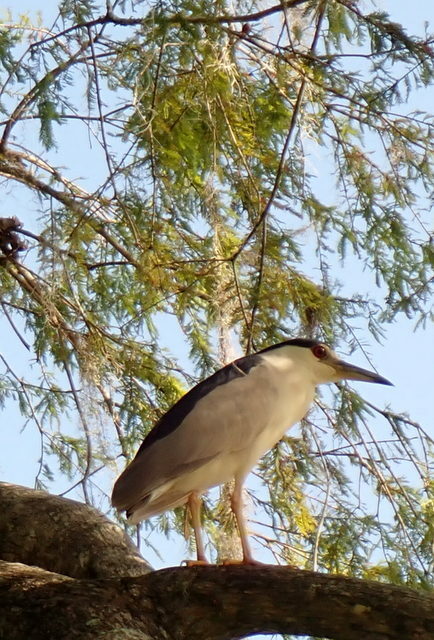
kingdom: Animalia
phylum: Chordata
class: Aves
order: Pelecaniformes
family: Ardeidae
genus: Nycticorax
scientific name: Nycticorax nycticorax
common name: Black-crowned night heron
